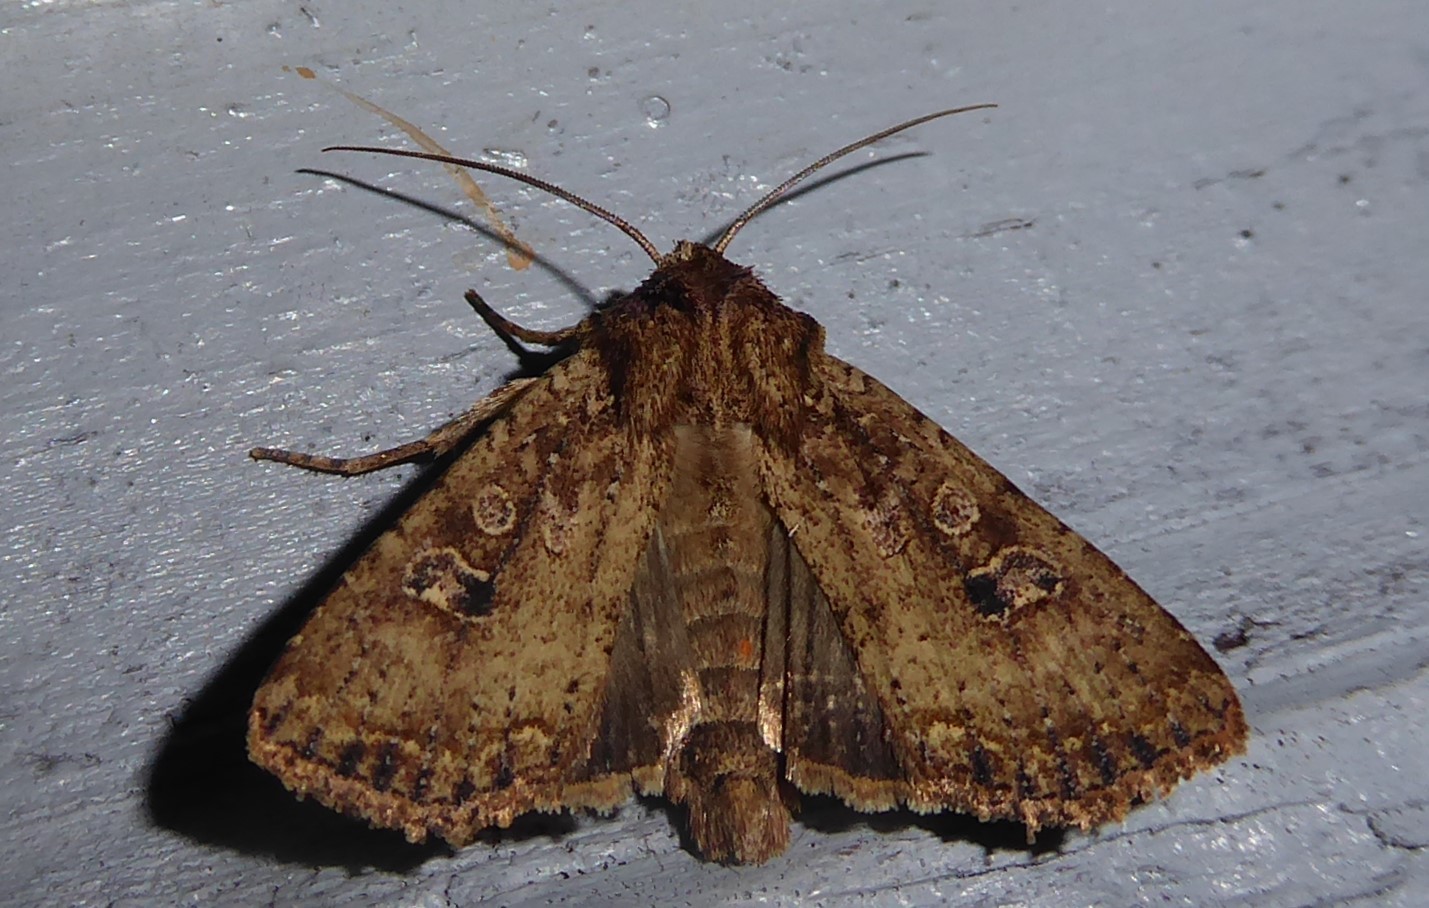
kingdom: Animalia
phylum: Arthropoda
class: Insecta
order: Lepidoptera
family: Noctuidae
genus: Ichneutica
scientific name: Ichneutica morosa
